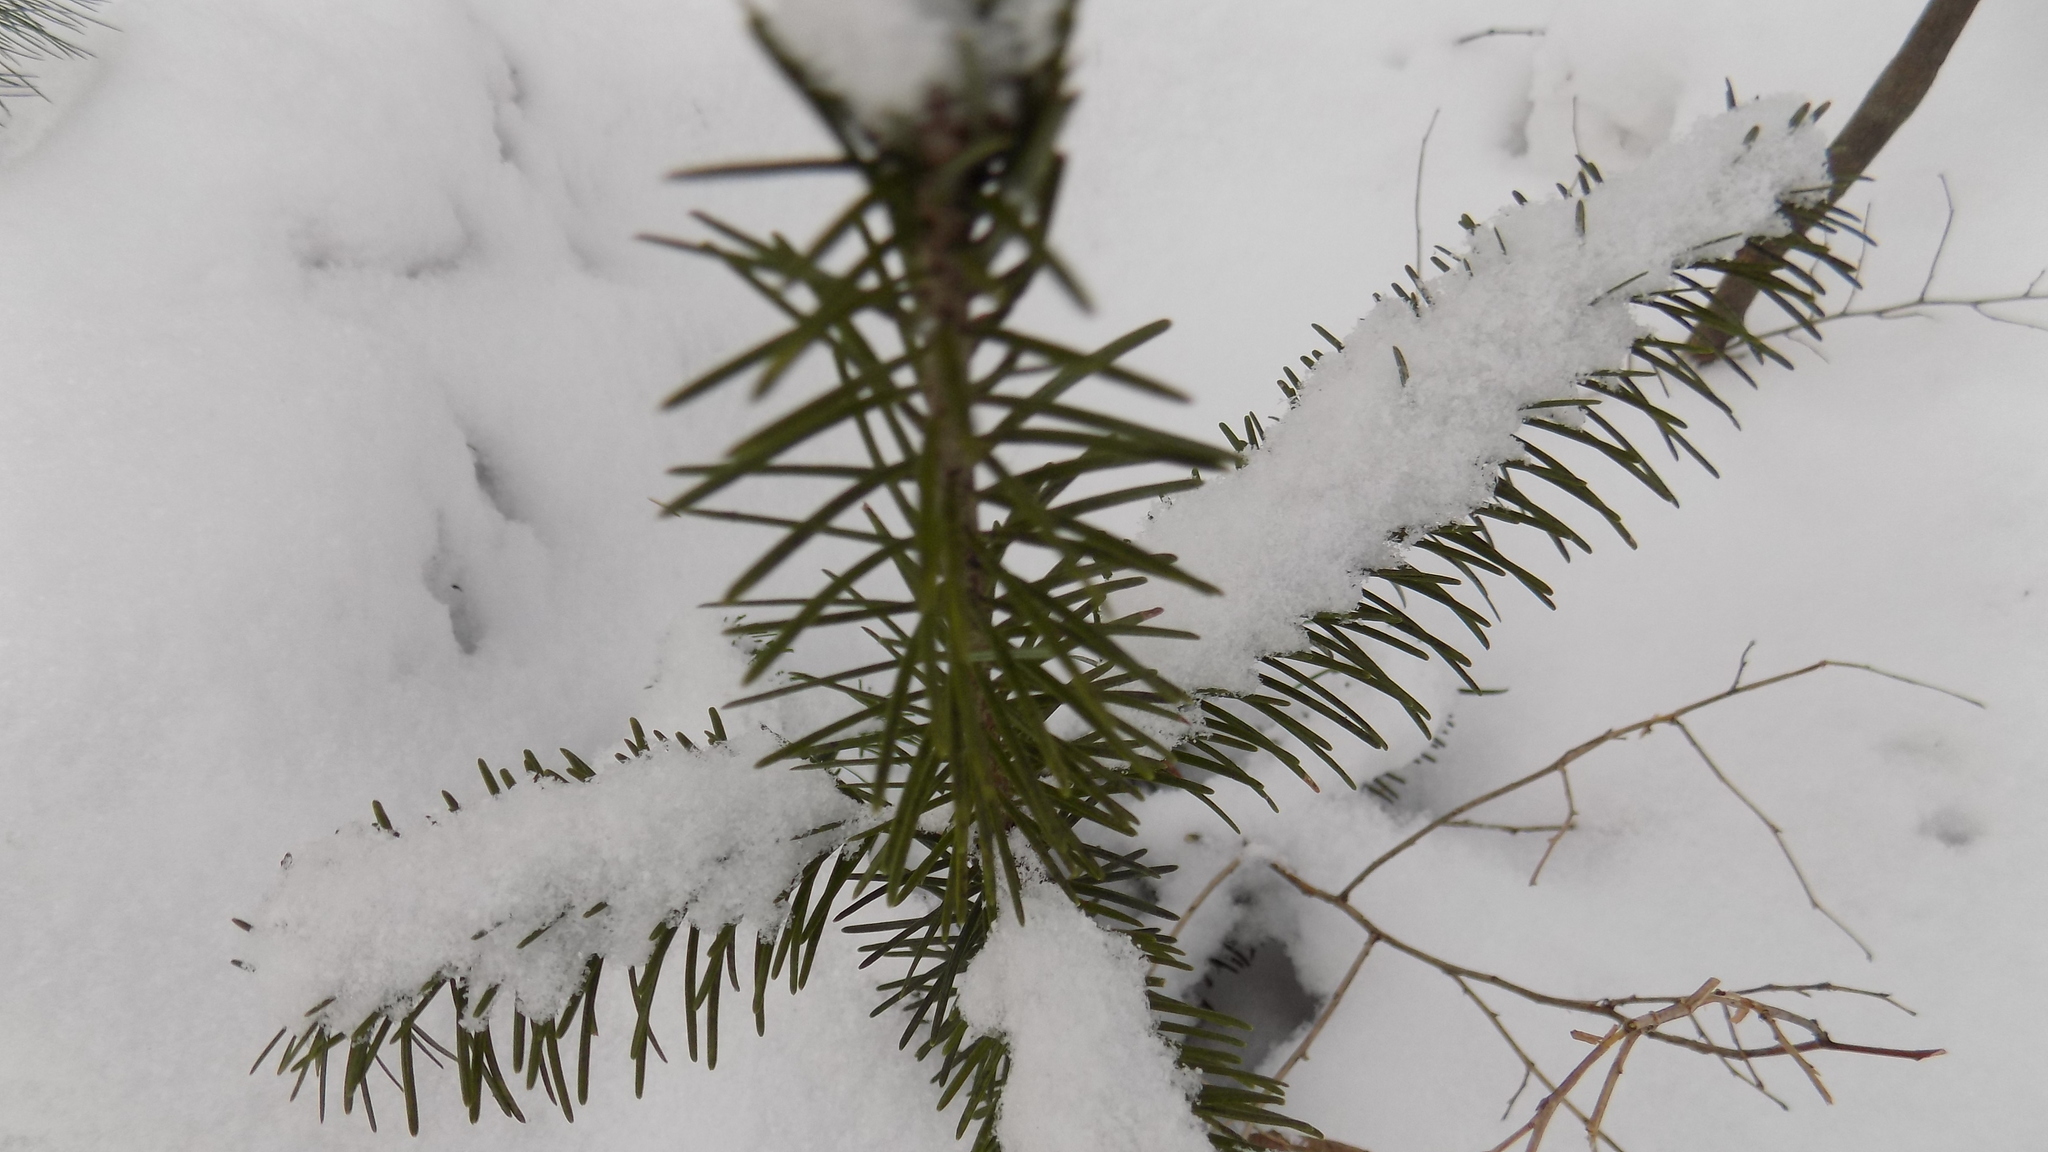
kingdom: Plantae
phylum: Tracheophyta
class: Pinopsida
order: Pinales
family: Pinaceae
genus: Abies
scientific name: Abies sibirica
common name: Siberian fir
